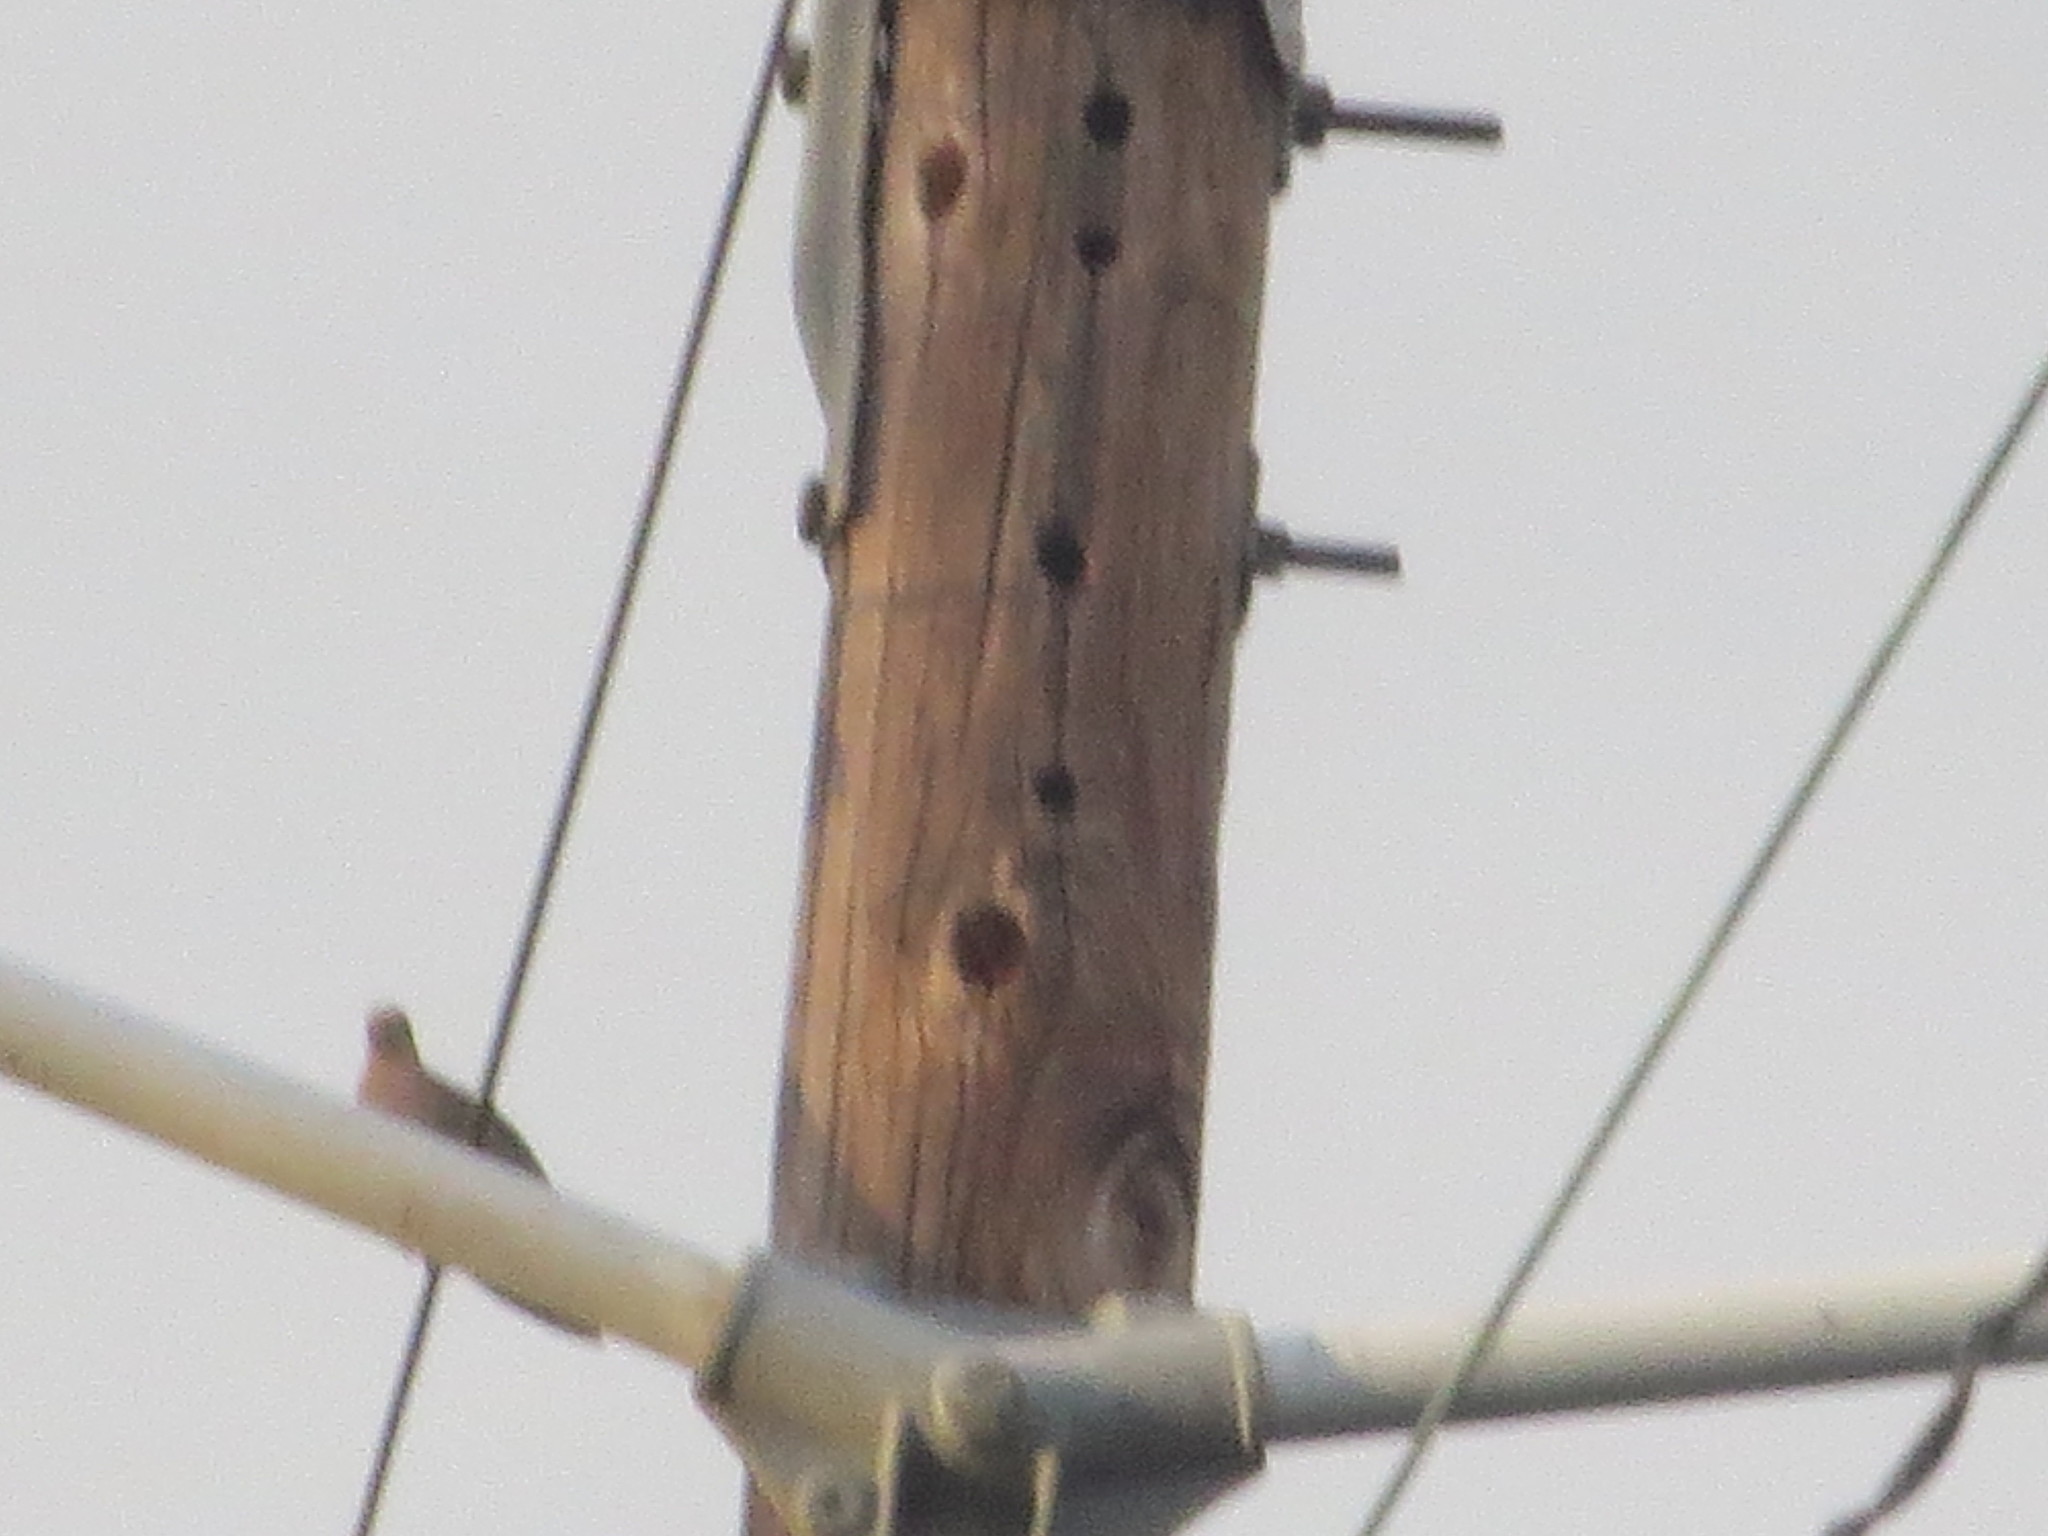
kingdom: Animalia
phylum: Chordata
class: Aves
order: Columbiformes
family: Columbidae
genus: Zenaida
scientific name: Zenaida macroura
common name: Mourning dove
